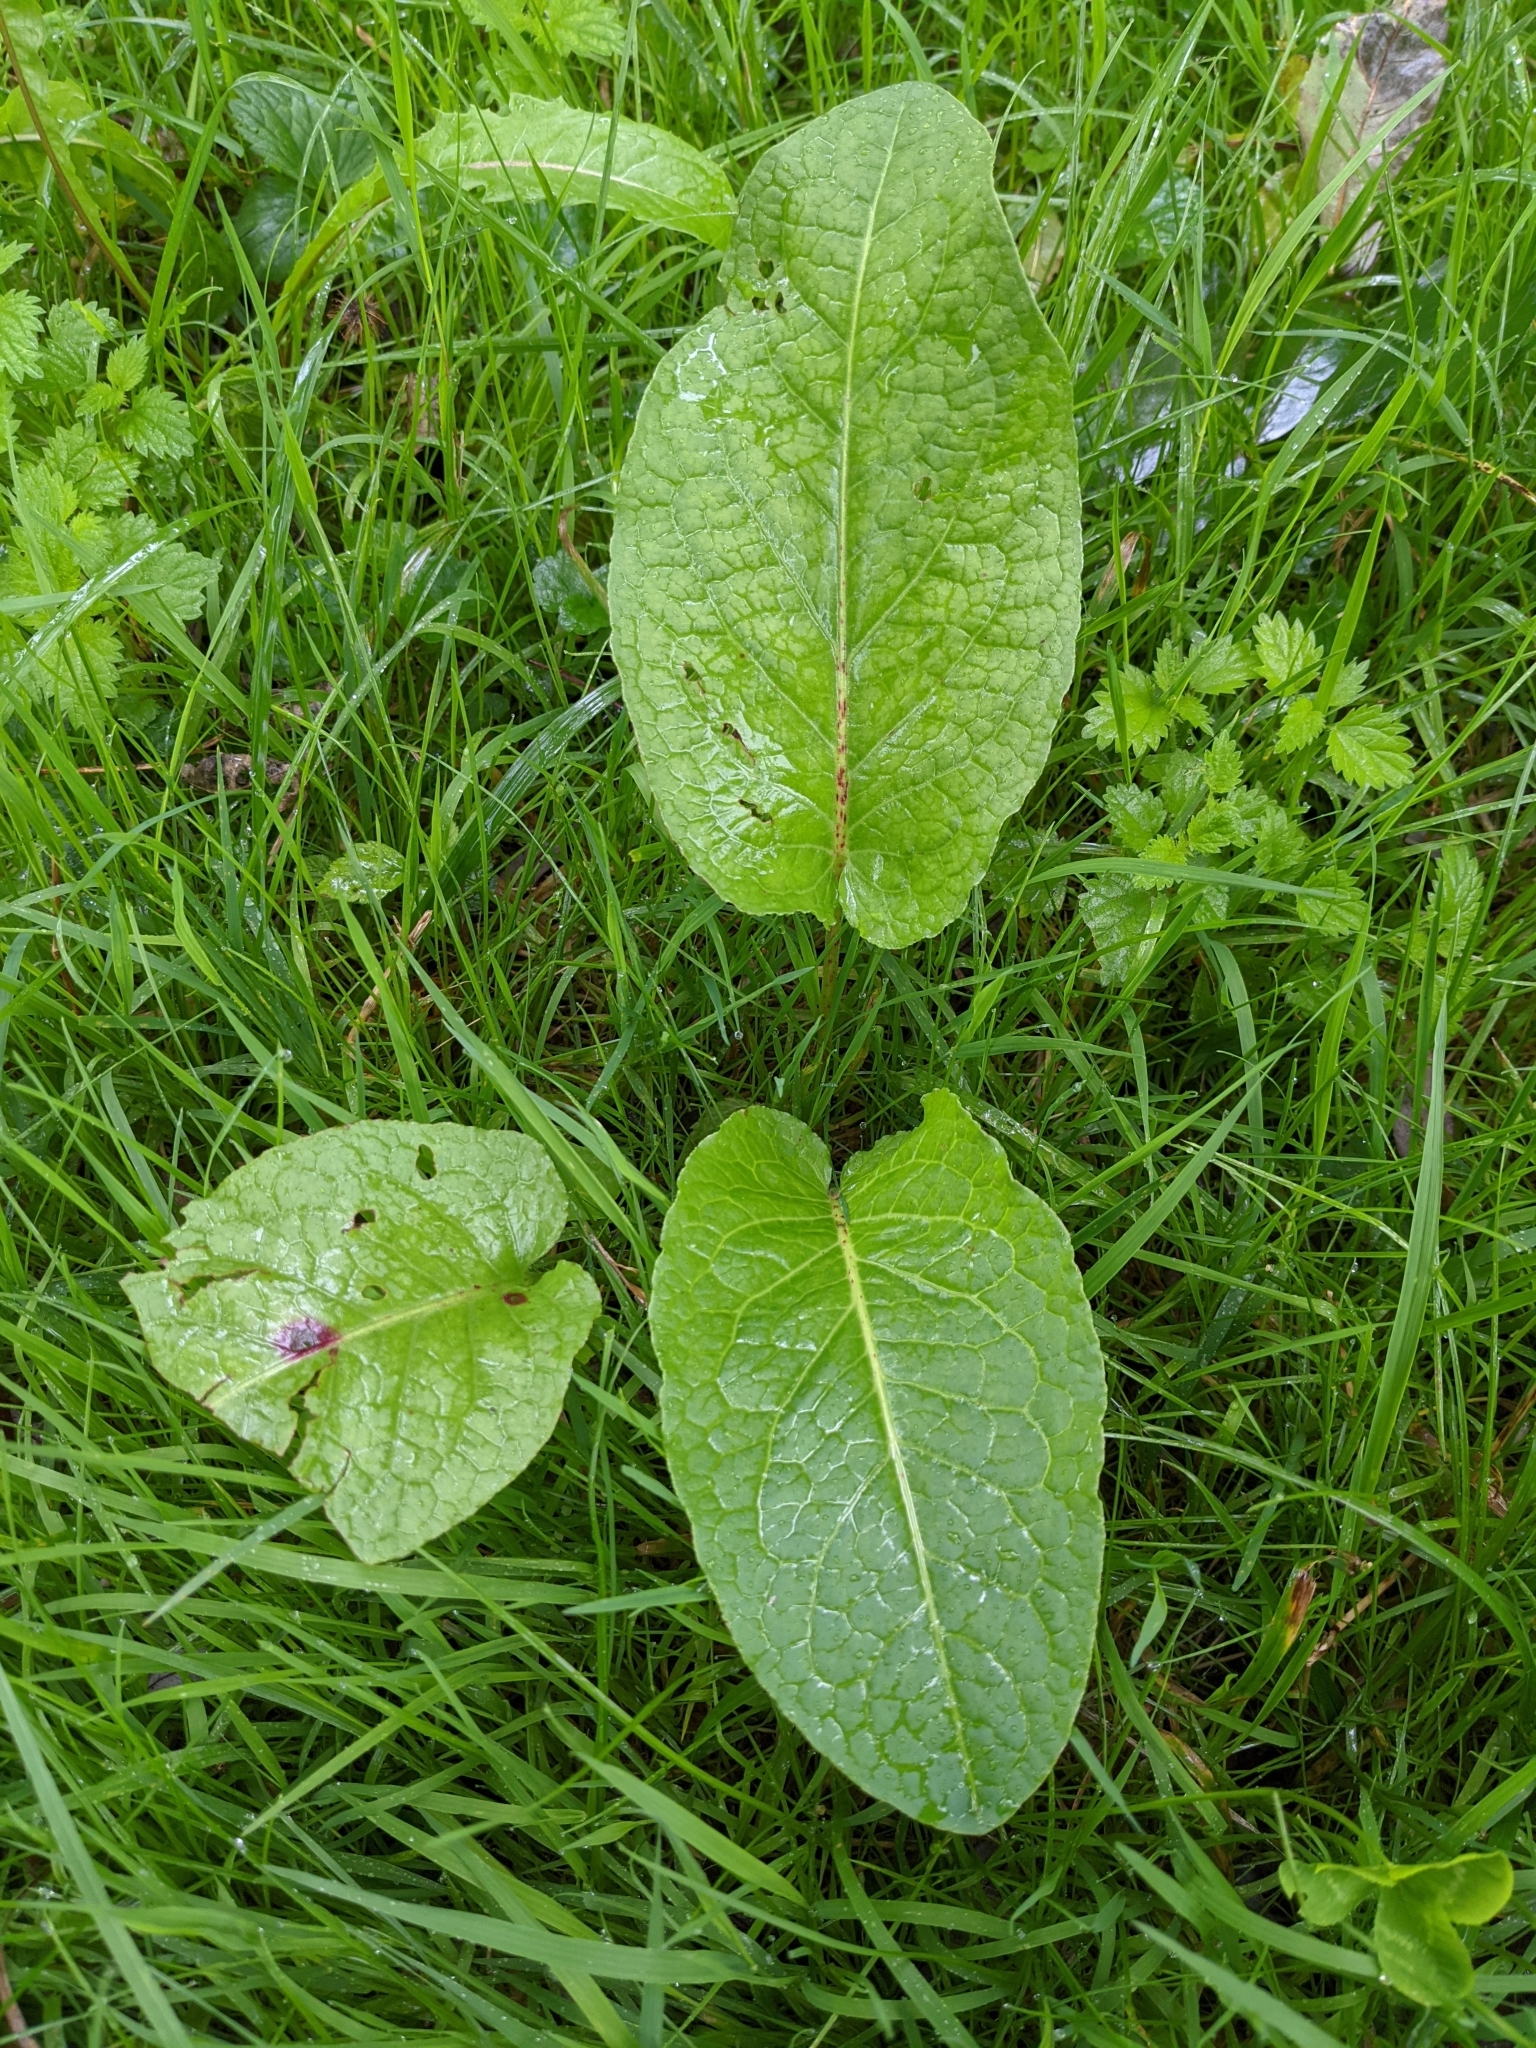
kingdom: Plantae
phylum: Tracheophyta
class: Magnoliopsida
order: Caryophyllales
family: Polygonaceae
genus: Rumex
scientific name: Rumex obtusifolius
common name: Bitter dock
